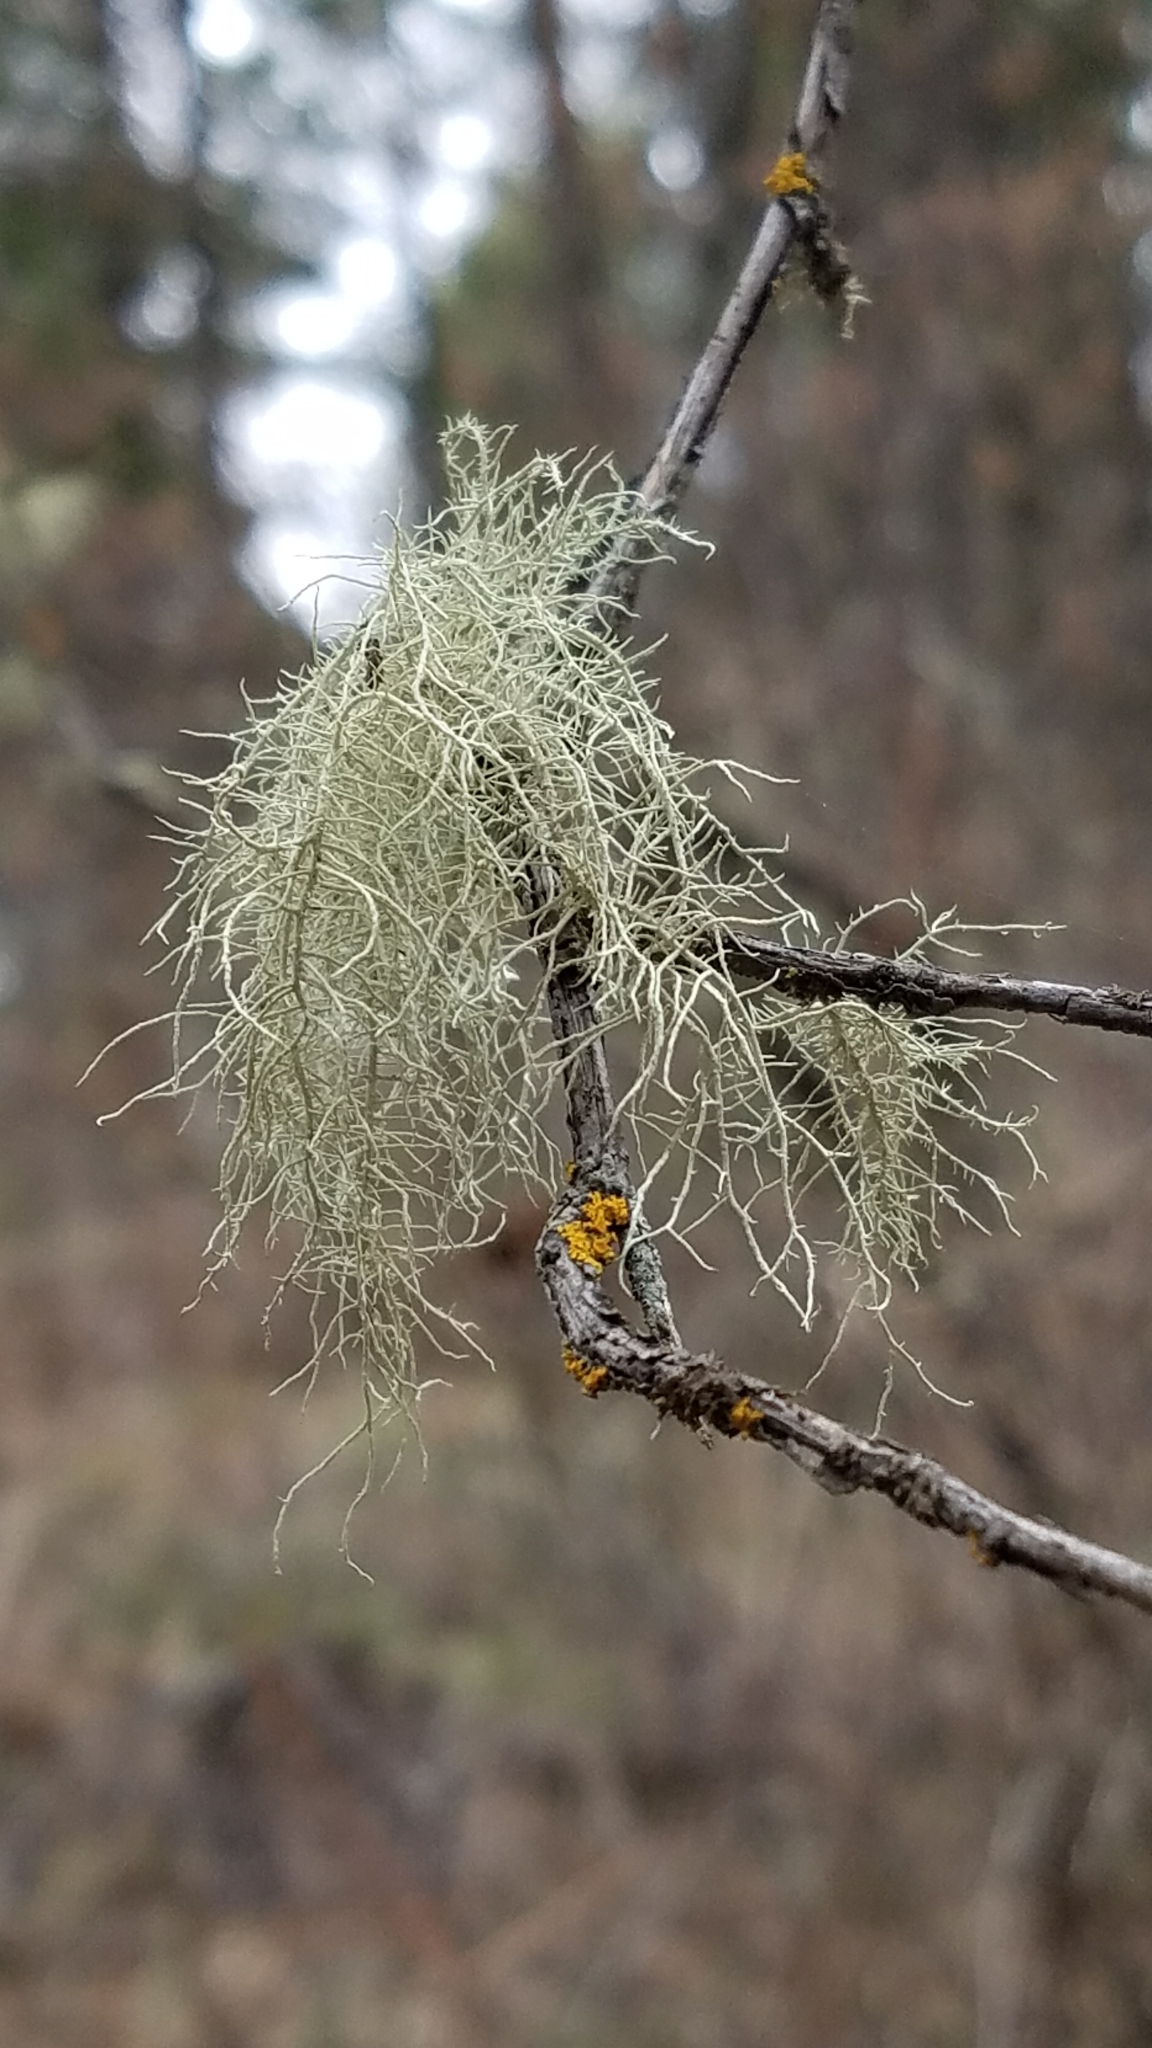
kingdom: Fungi
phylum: Ascomycota
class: Lecanoromycetes
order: Lecanorales
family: Parmeliaceae
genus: Usnea
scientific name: Usnea
